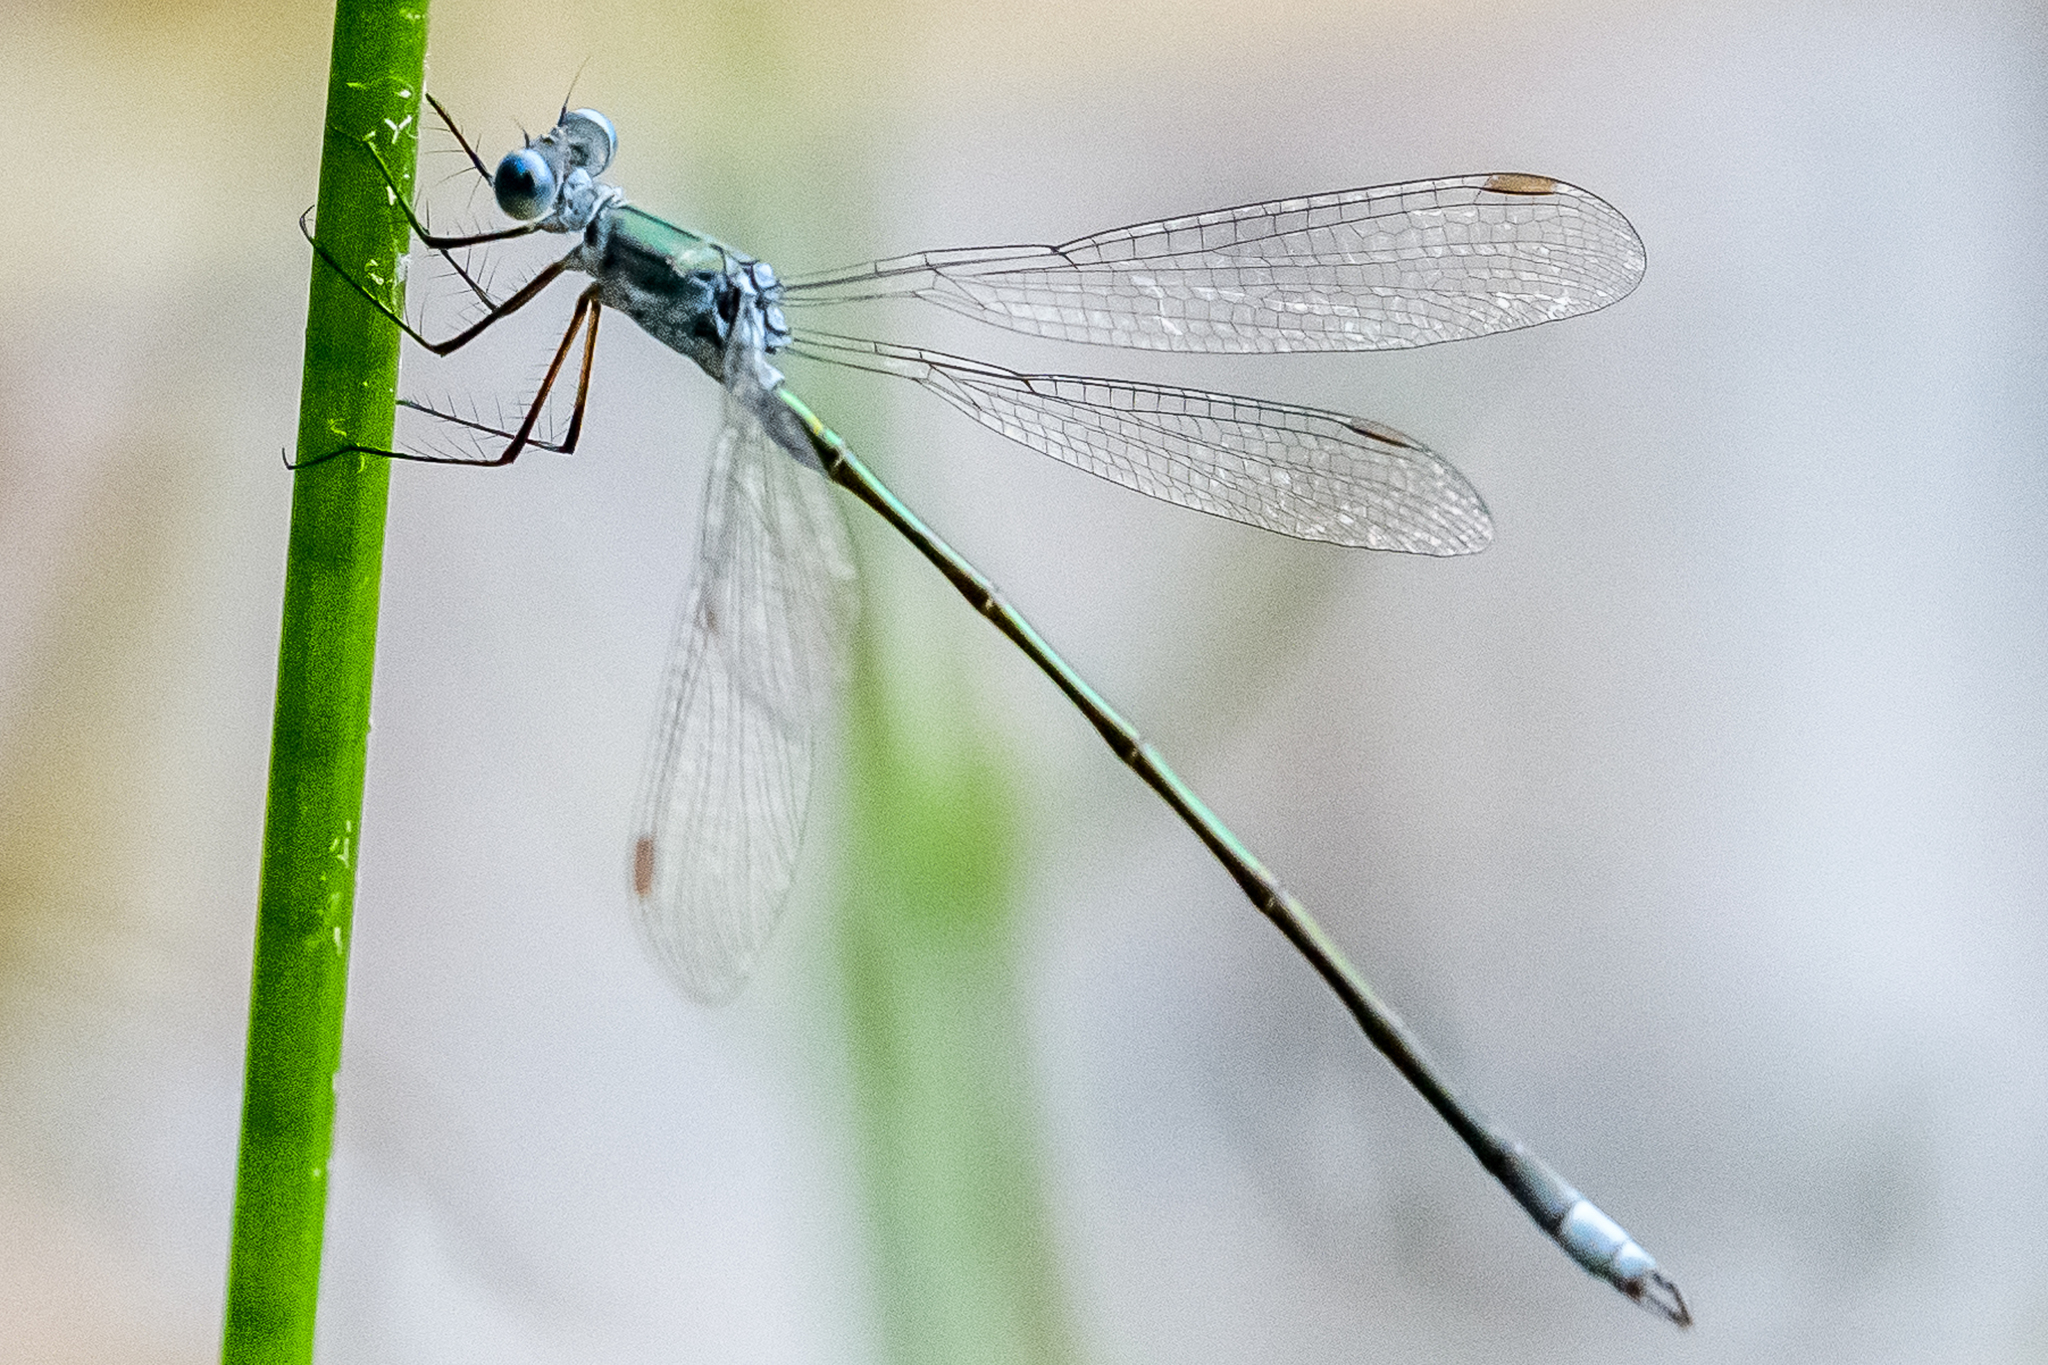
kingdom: Animalia
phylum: Arthropoda
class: Insecta
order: Odonata
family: Lestidae
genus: Lestes
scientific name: Lestes vigilax
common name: Swamp spreadwing
